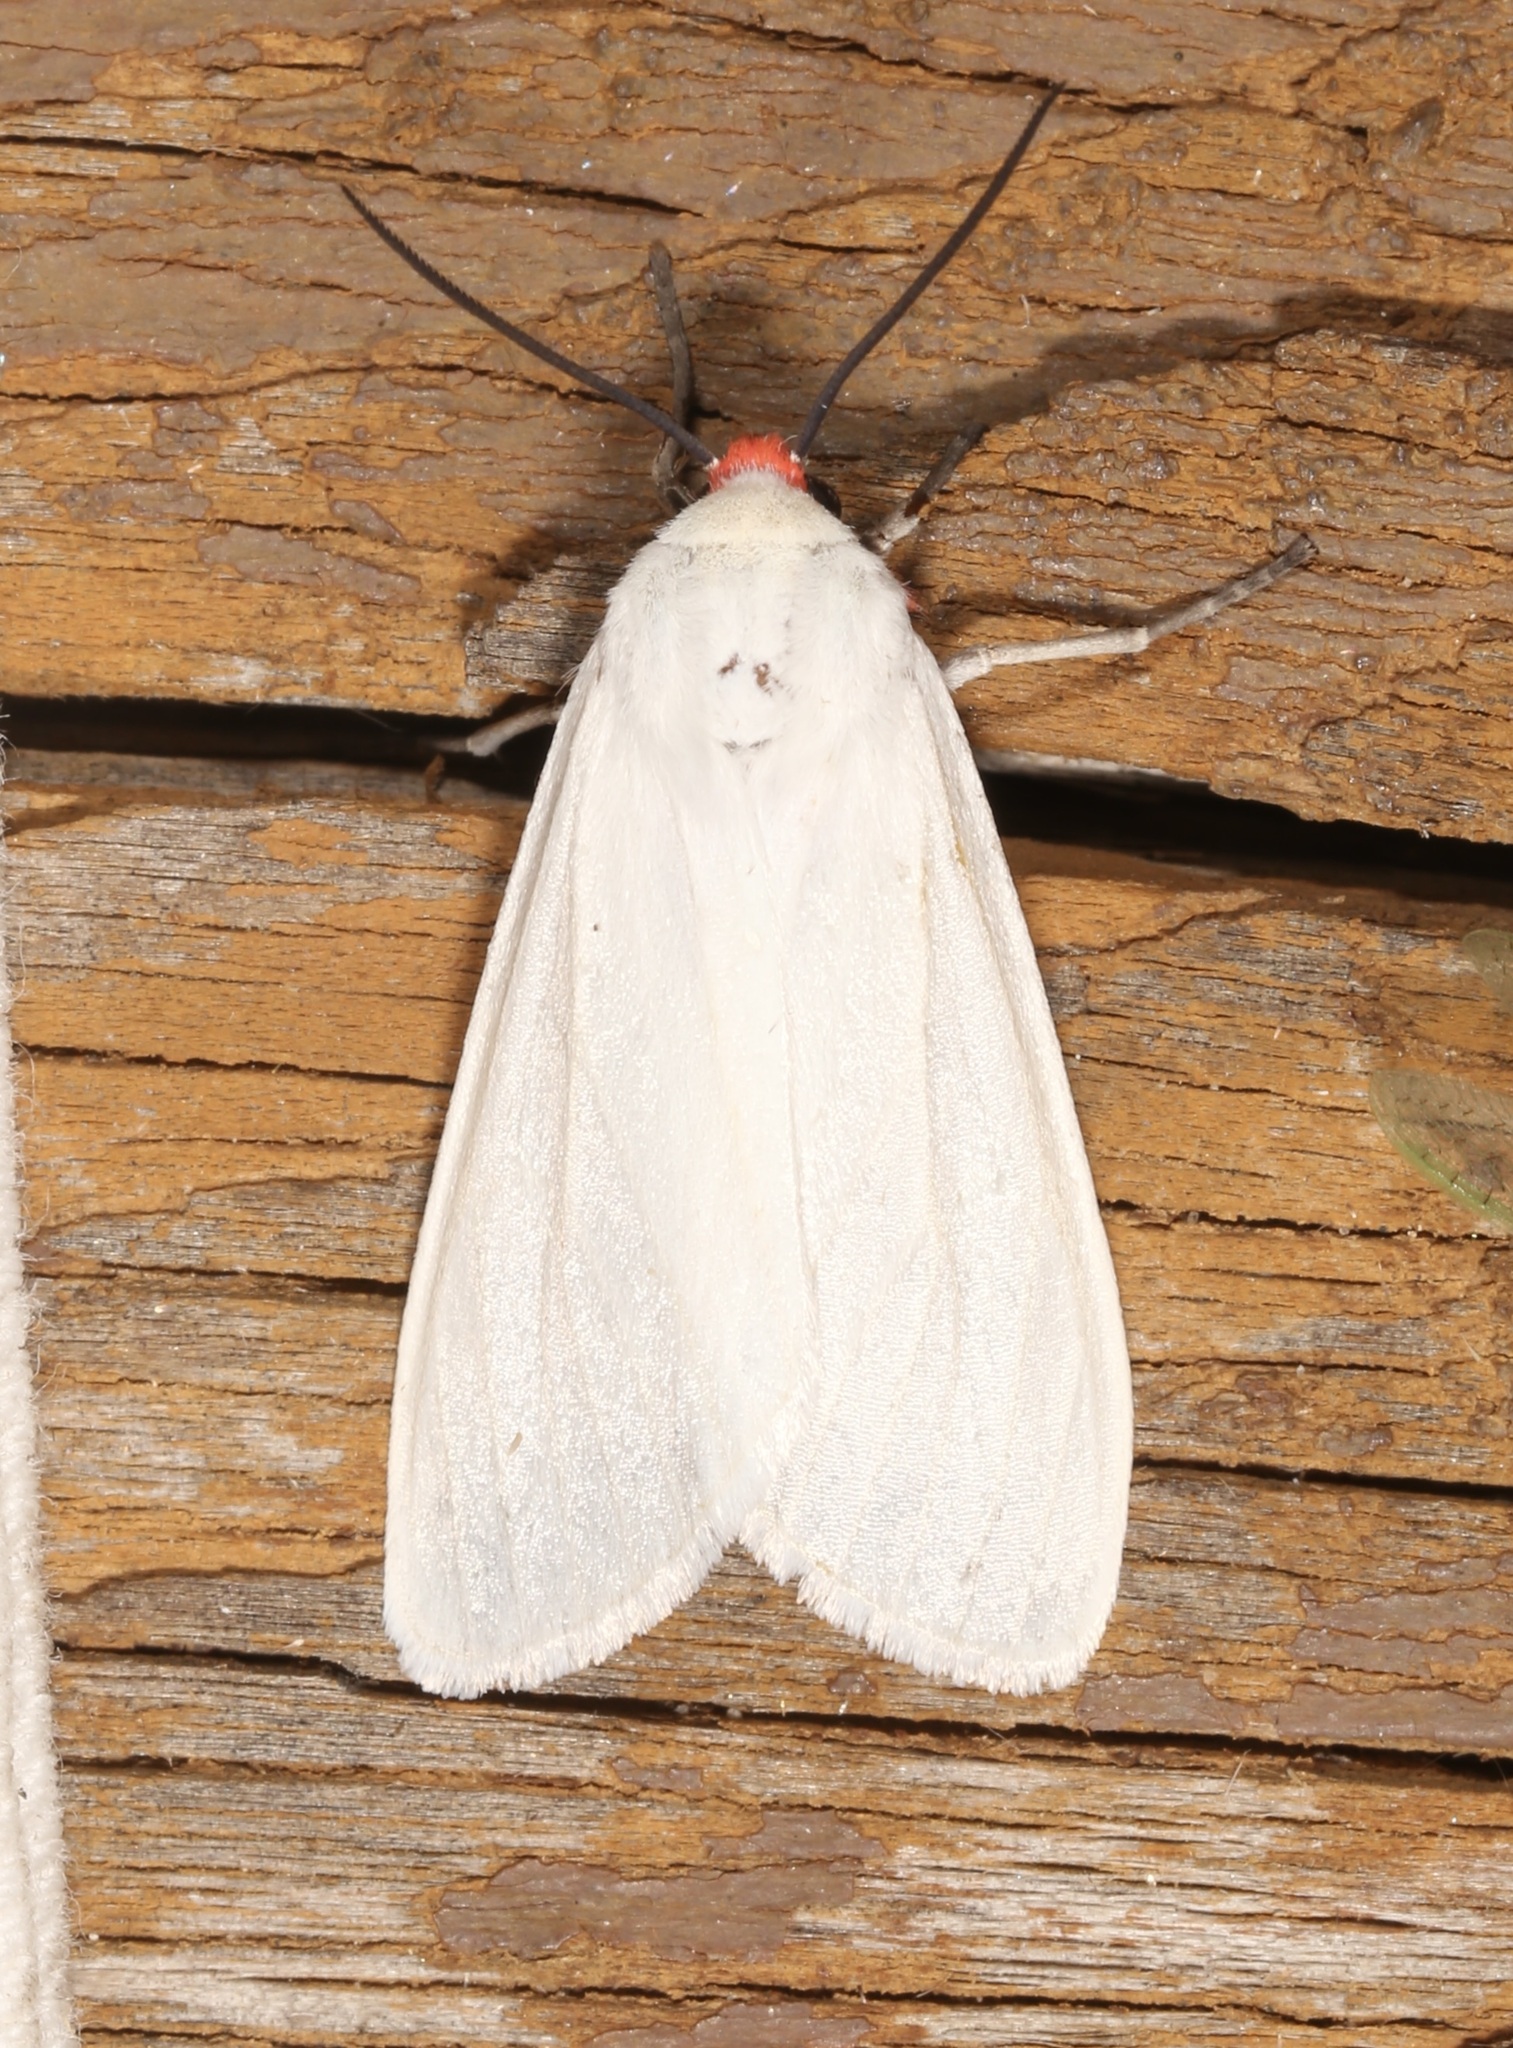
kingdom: Animalia
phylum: Arthropoda
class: Insecta
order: Lepidoptera
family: Erebidae
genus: Pygarctia
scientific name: Pygarctia roseicapitis
